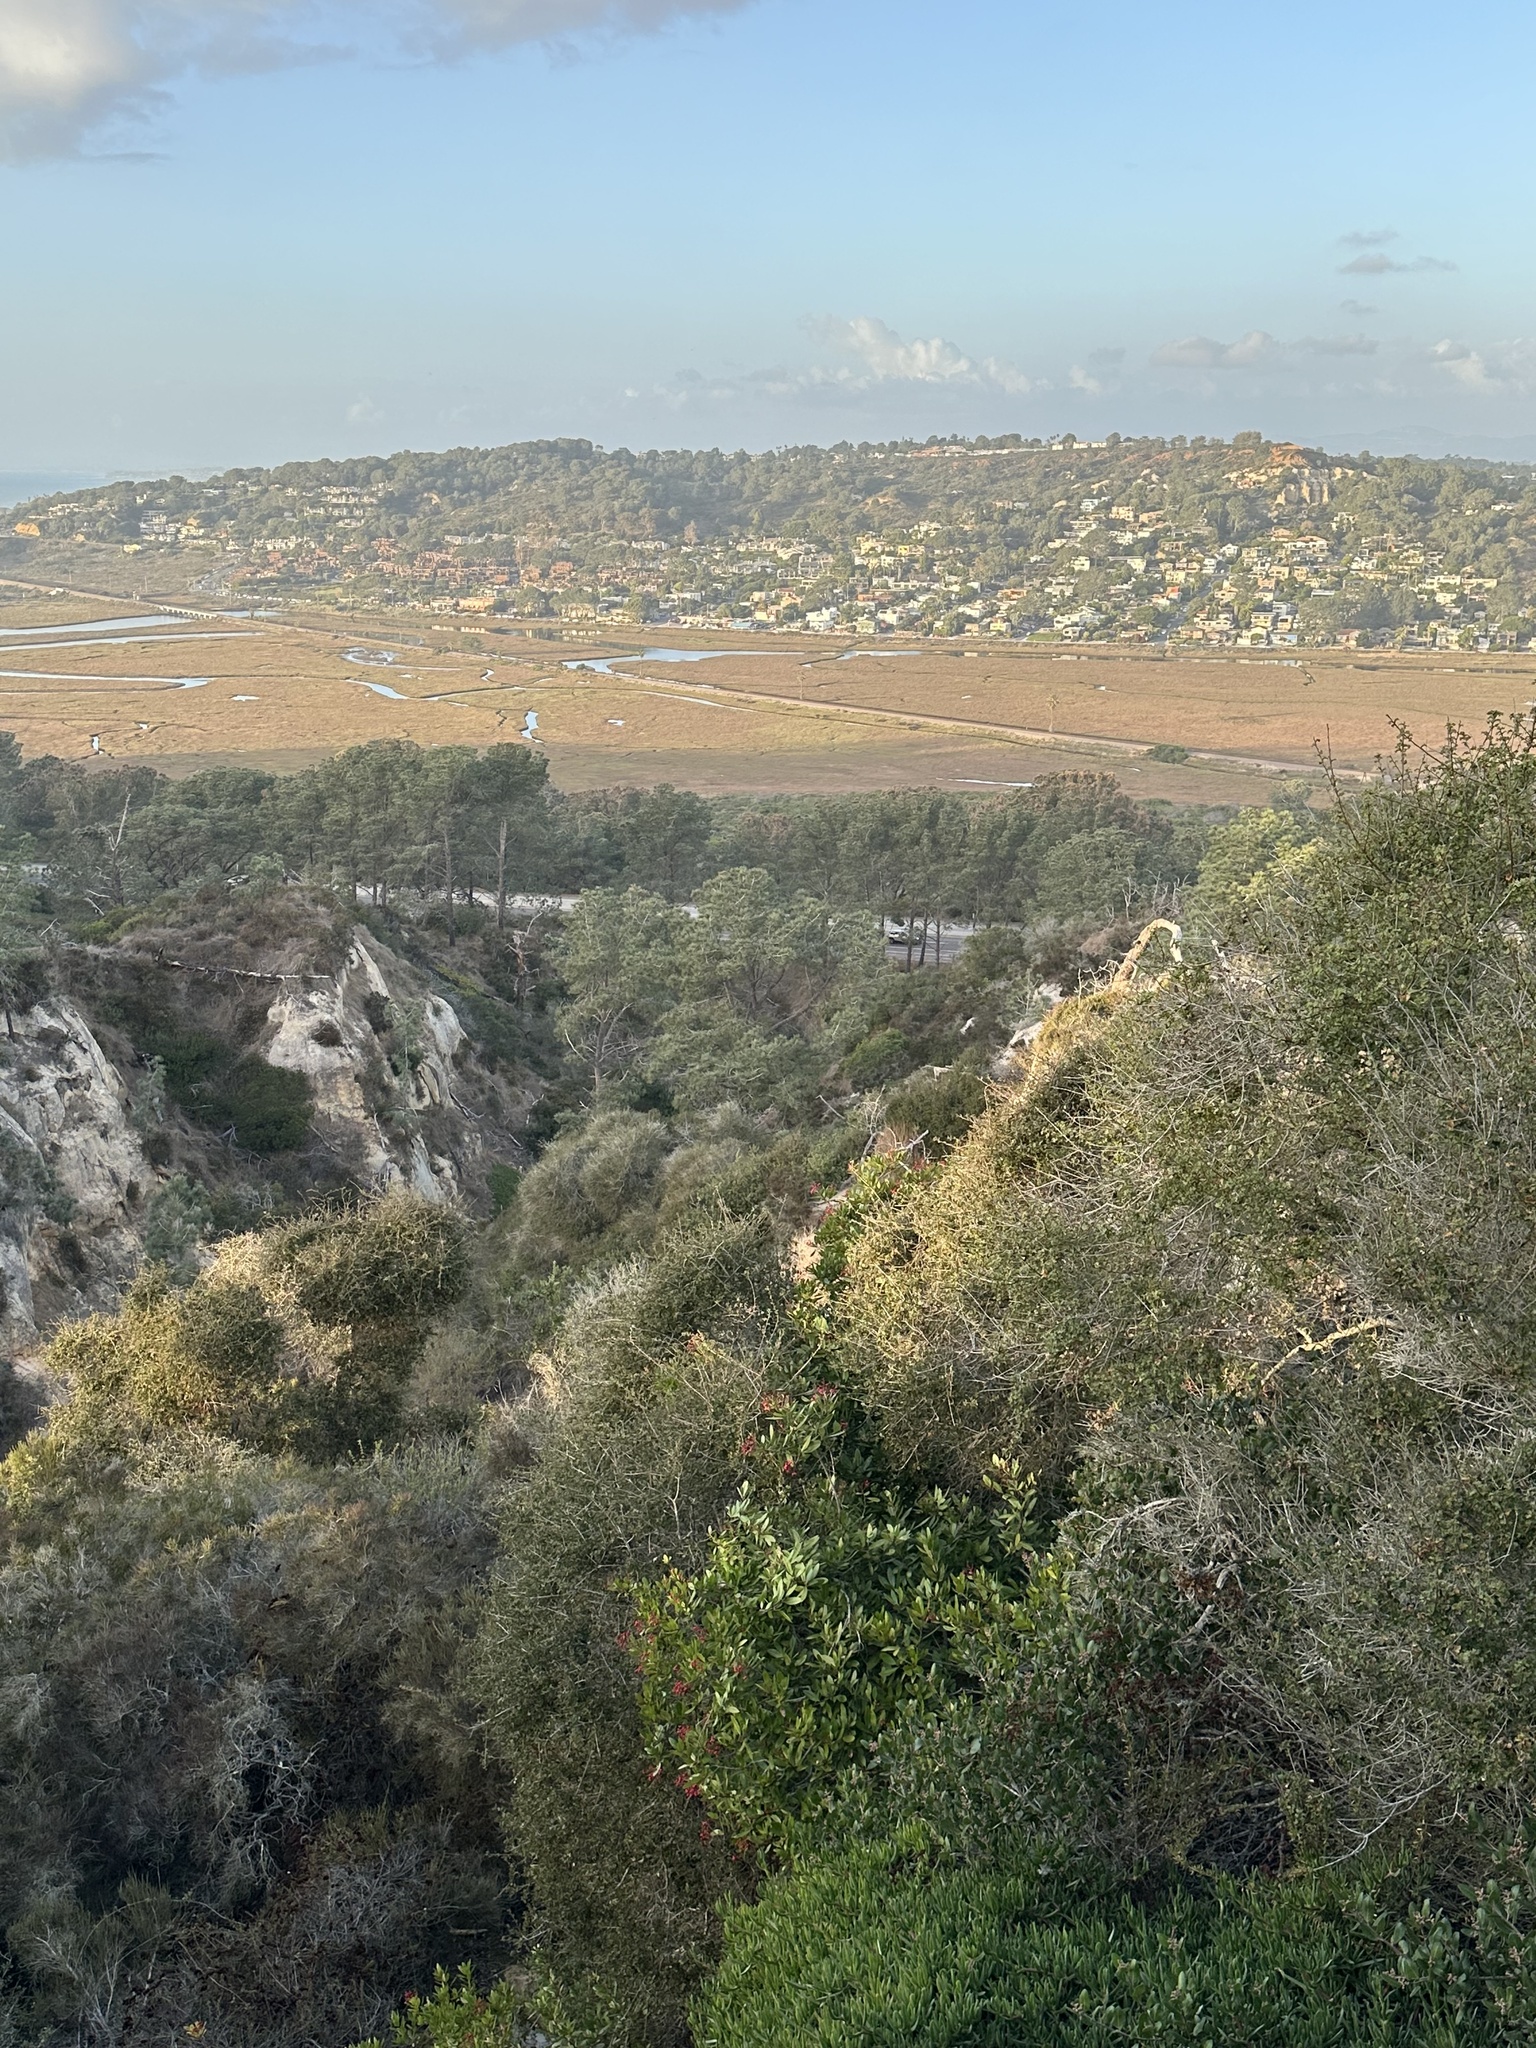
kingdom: Plantae
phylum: Tracheophyta
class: Magnoliopsida
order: Rosales
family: Rosaceae
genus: Heteromeles
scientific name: Heteromeles arbutifolia
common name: California-holly
